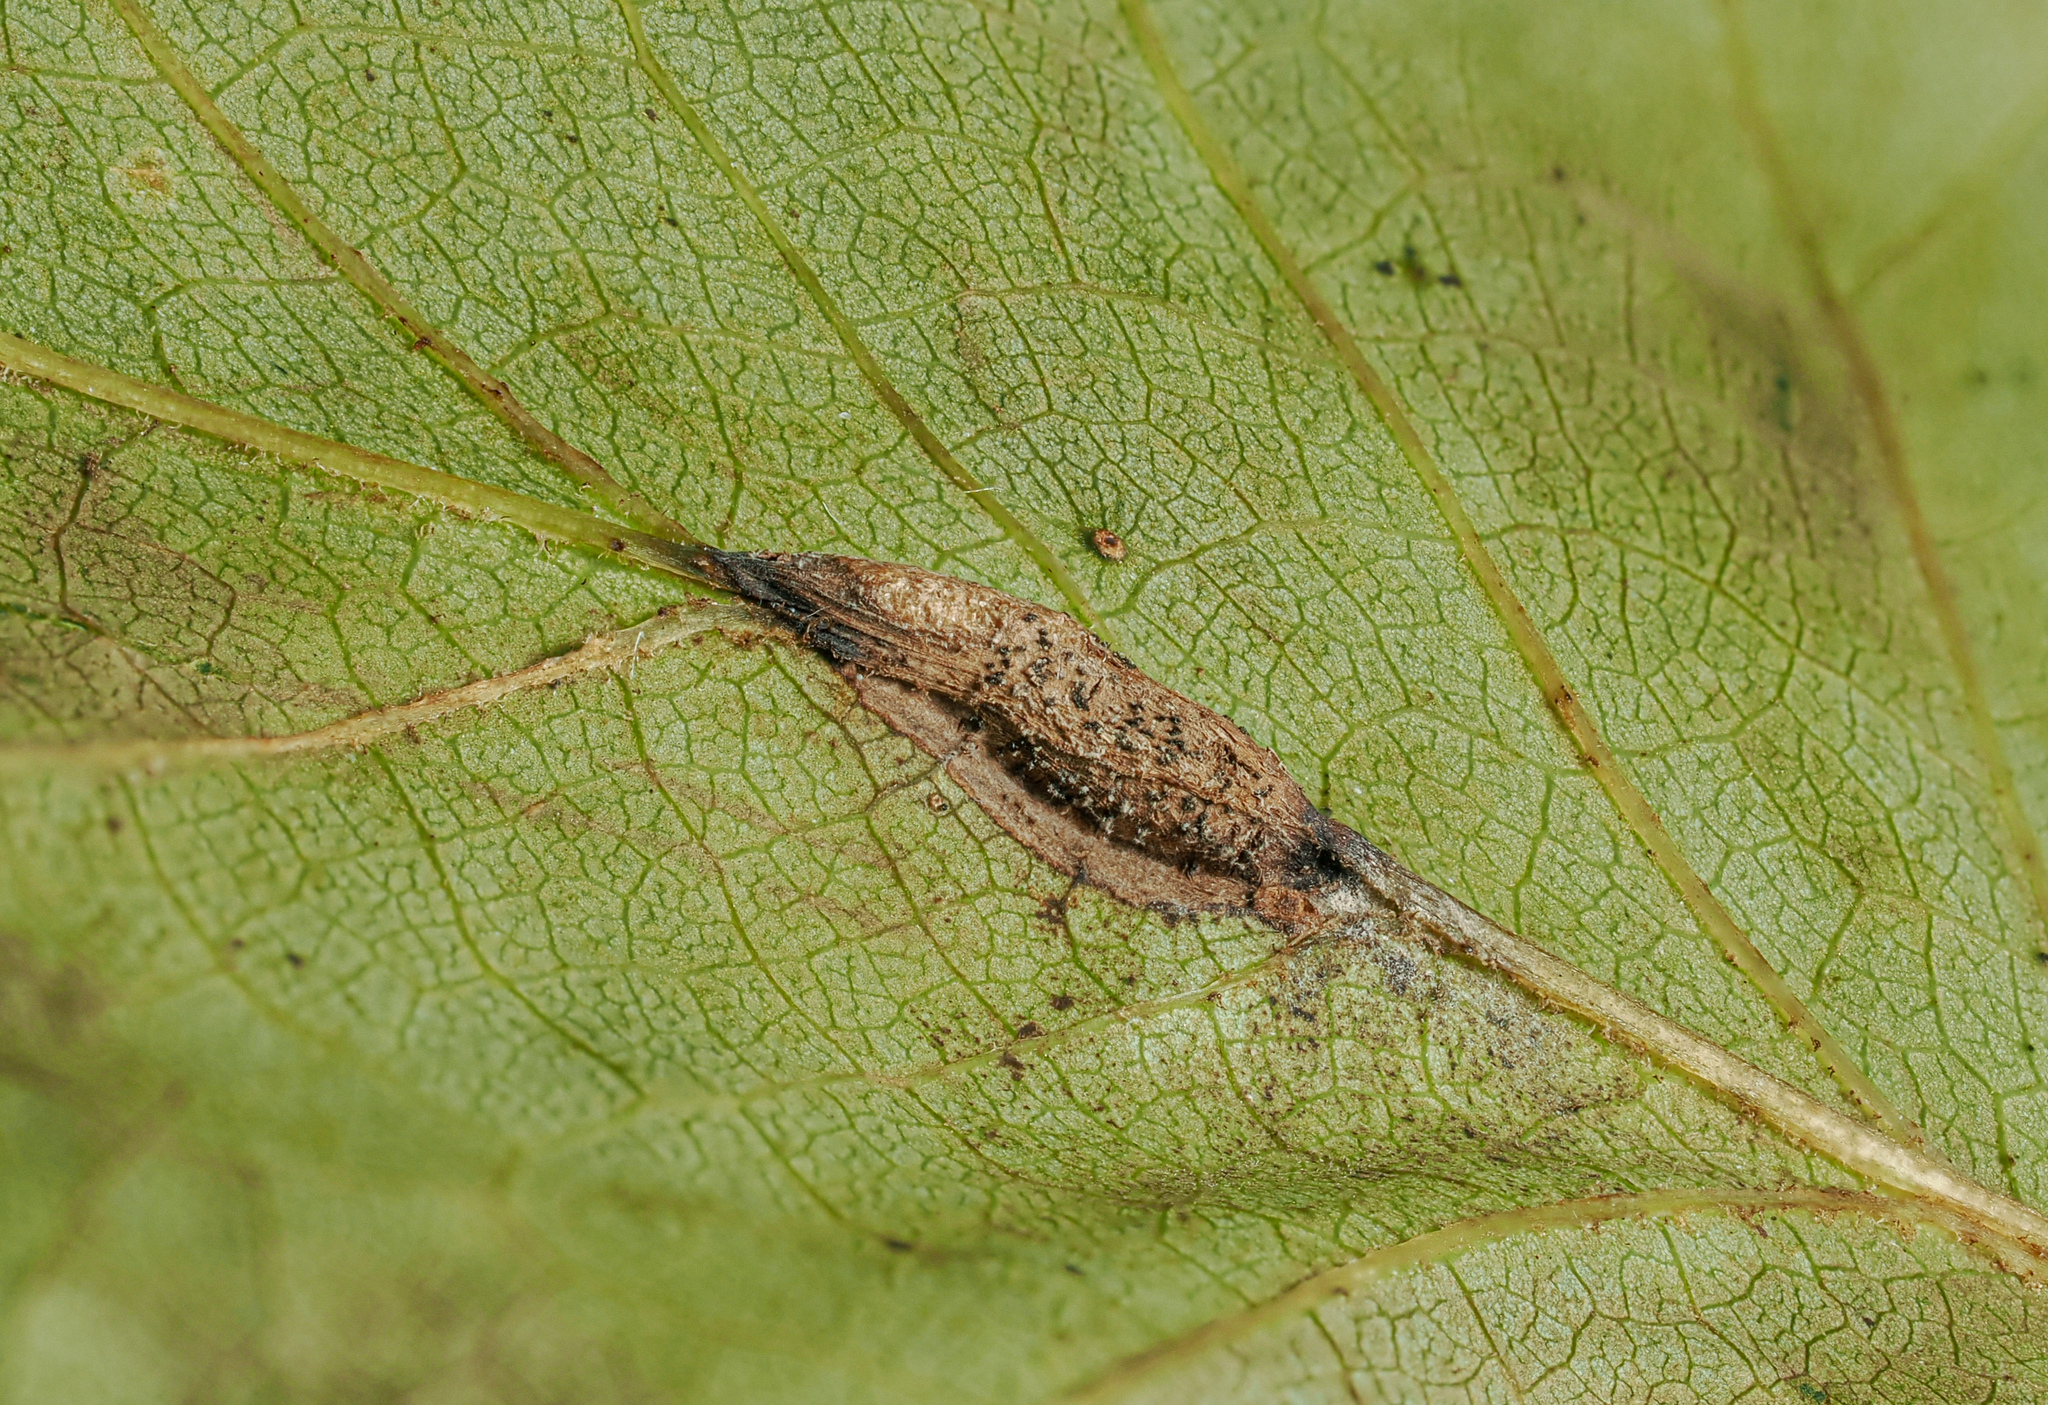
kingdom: Animalia
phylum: Arthropoda
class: Insecta
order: Diptera
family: Cecidomyiidae
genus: Resseliella
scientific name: Resseliella tulipiferae
